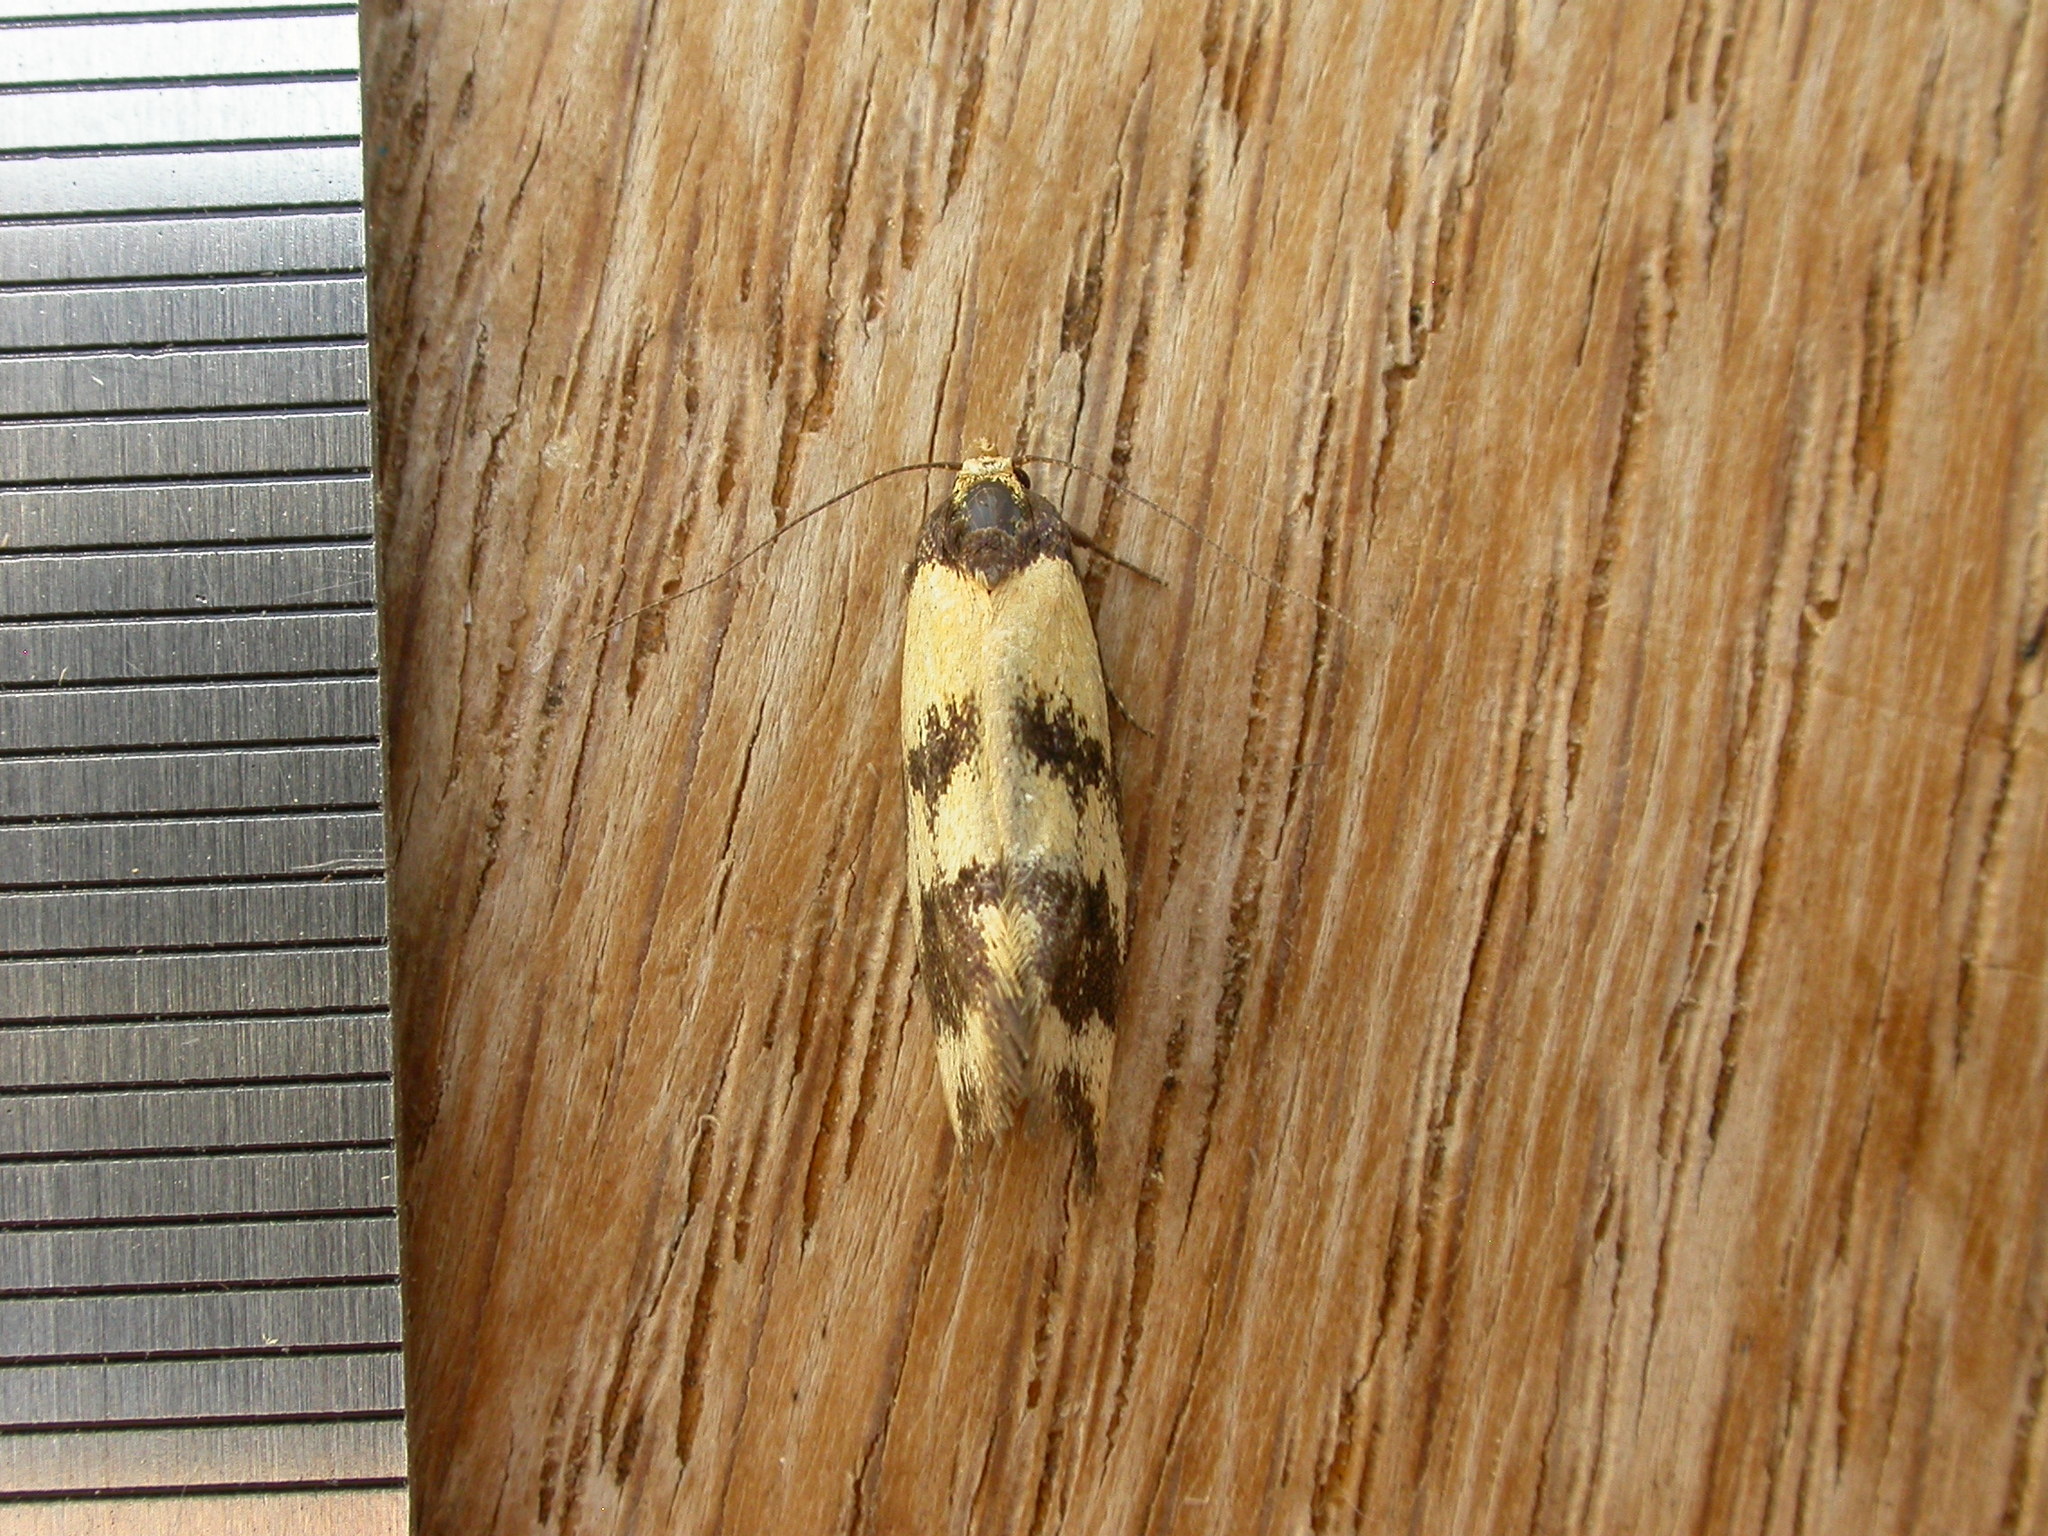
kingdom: Animalia
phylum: Arthropoda
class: Insecta
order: Lepidoptera
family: Oecophoridae
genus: Olbonoma
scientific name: Olbonoma triptycha
